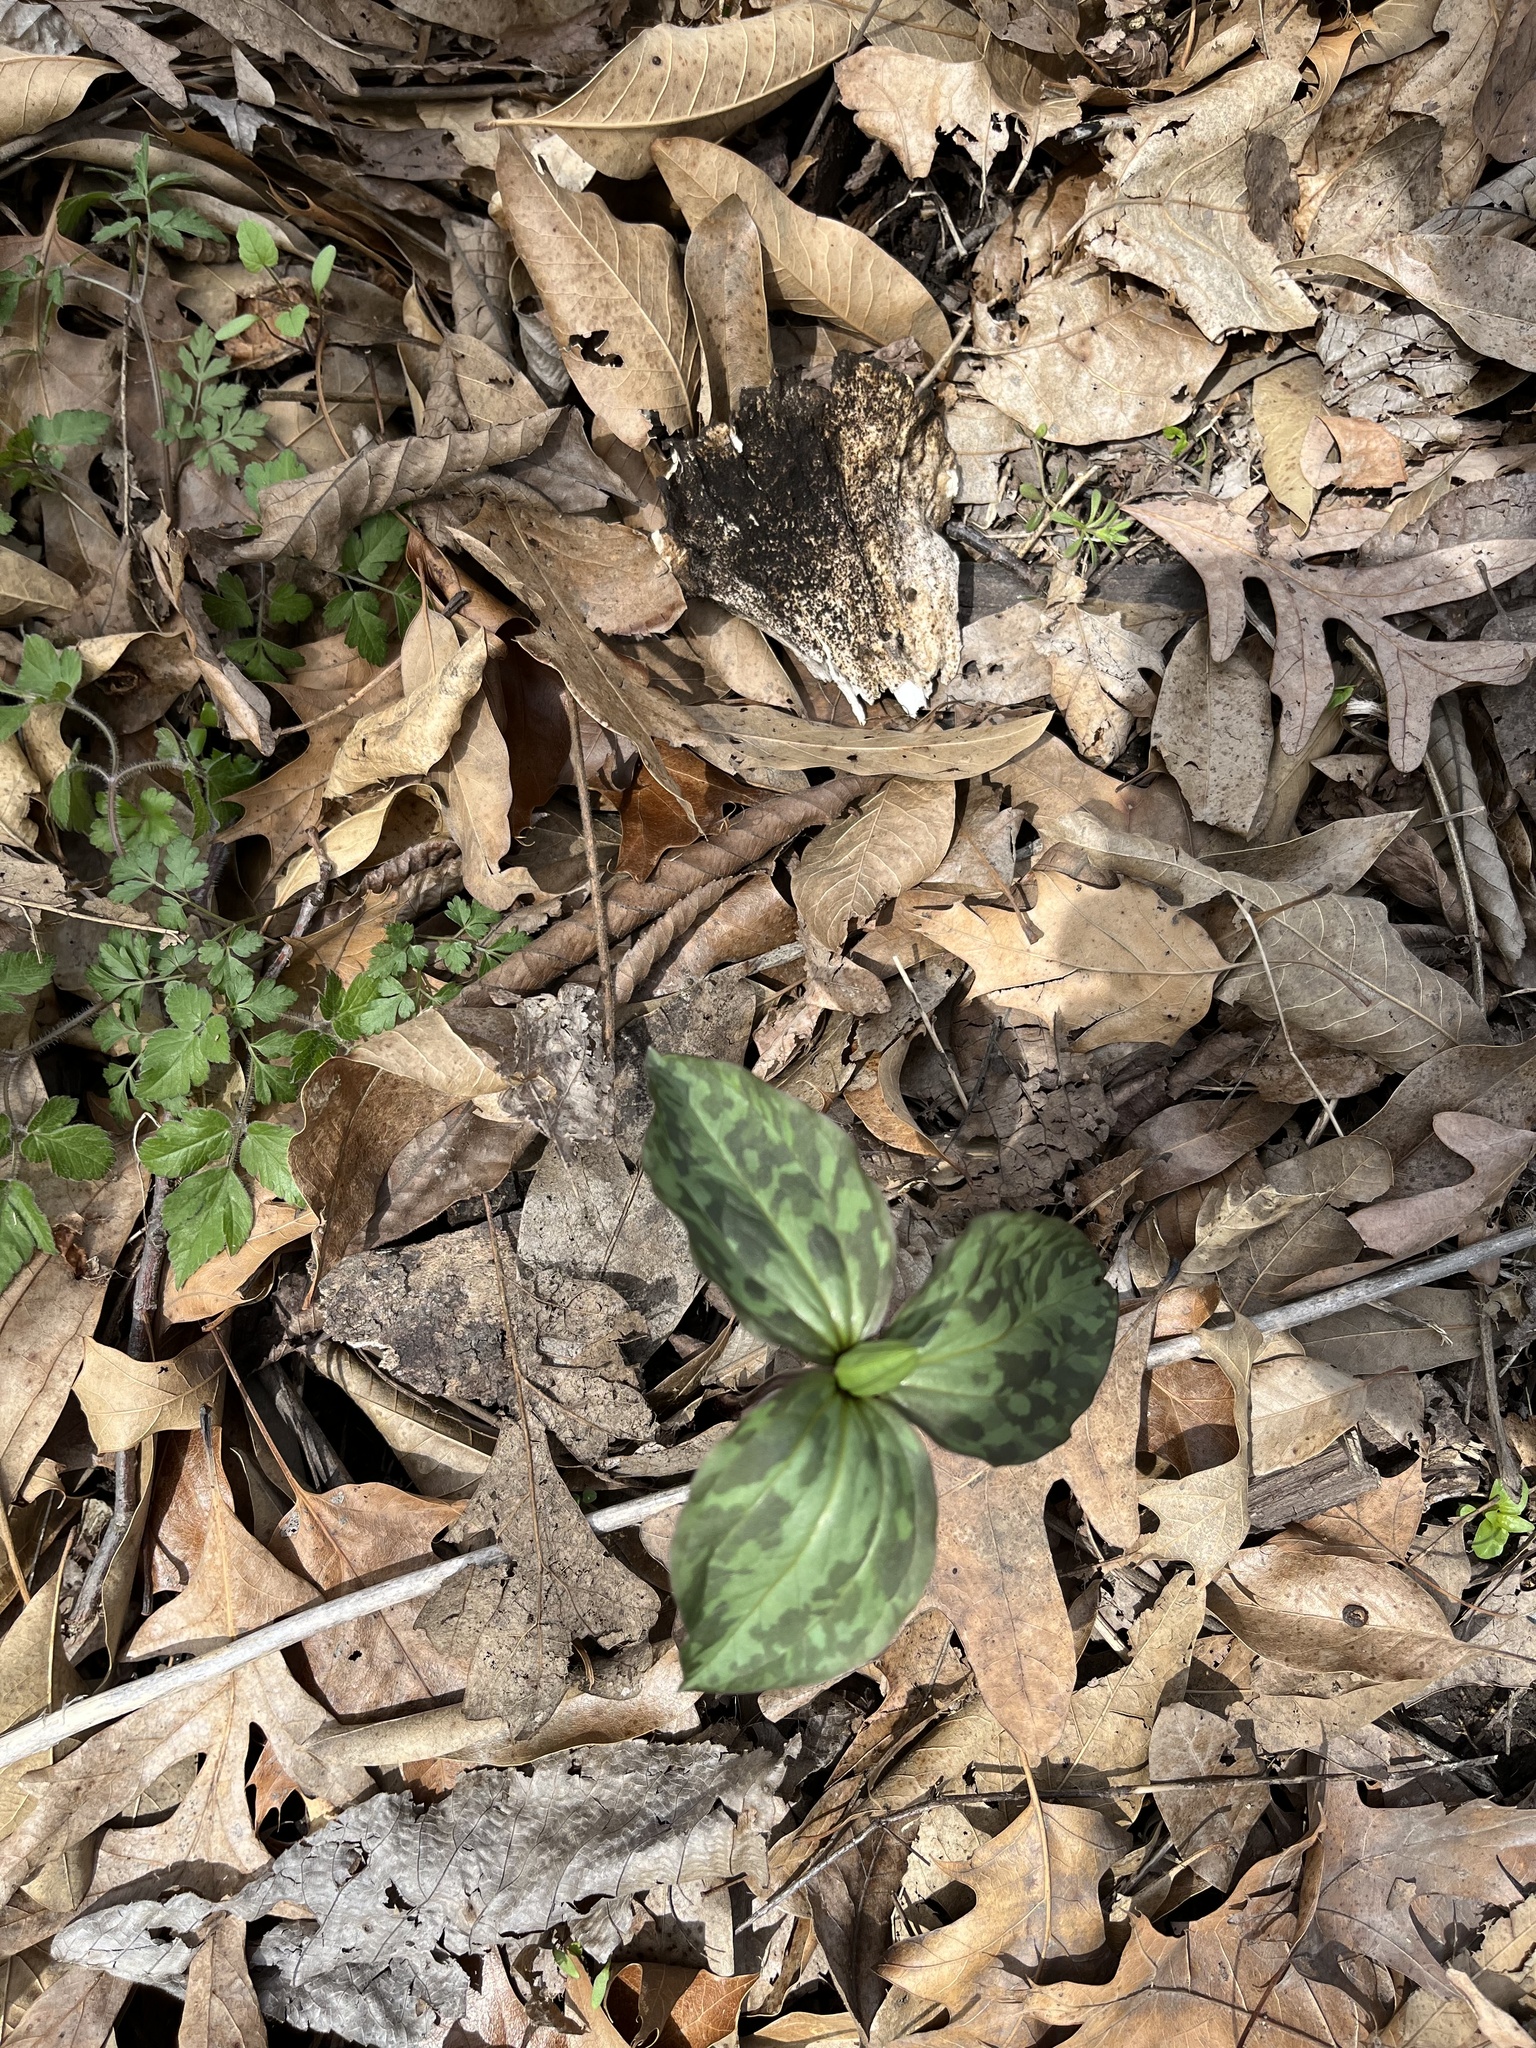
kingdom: Plantae
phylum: Tracheophyta
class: Liliopsida
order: Liliales
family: Melanthiaceae
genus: Trillium
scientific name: Trillium recurvatum
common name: Bloody butcher
